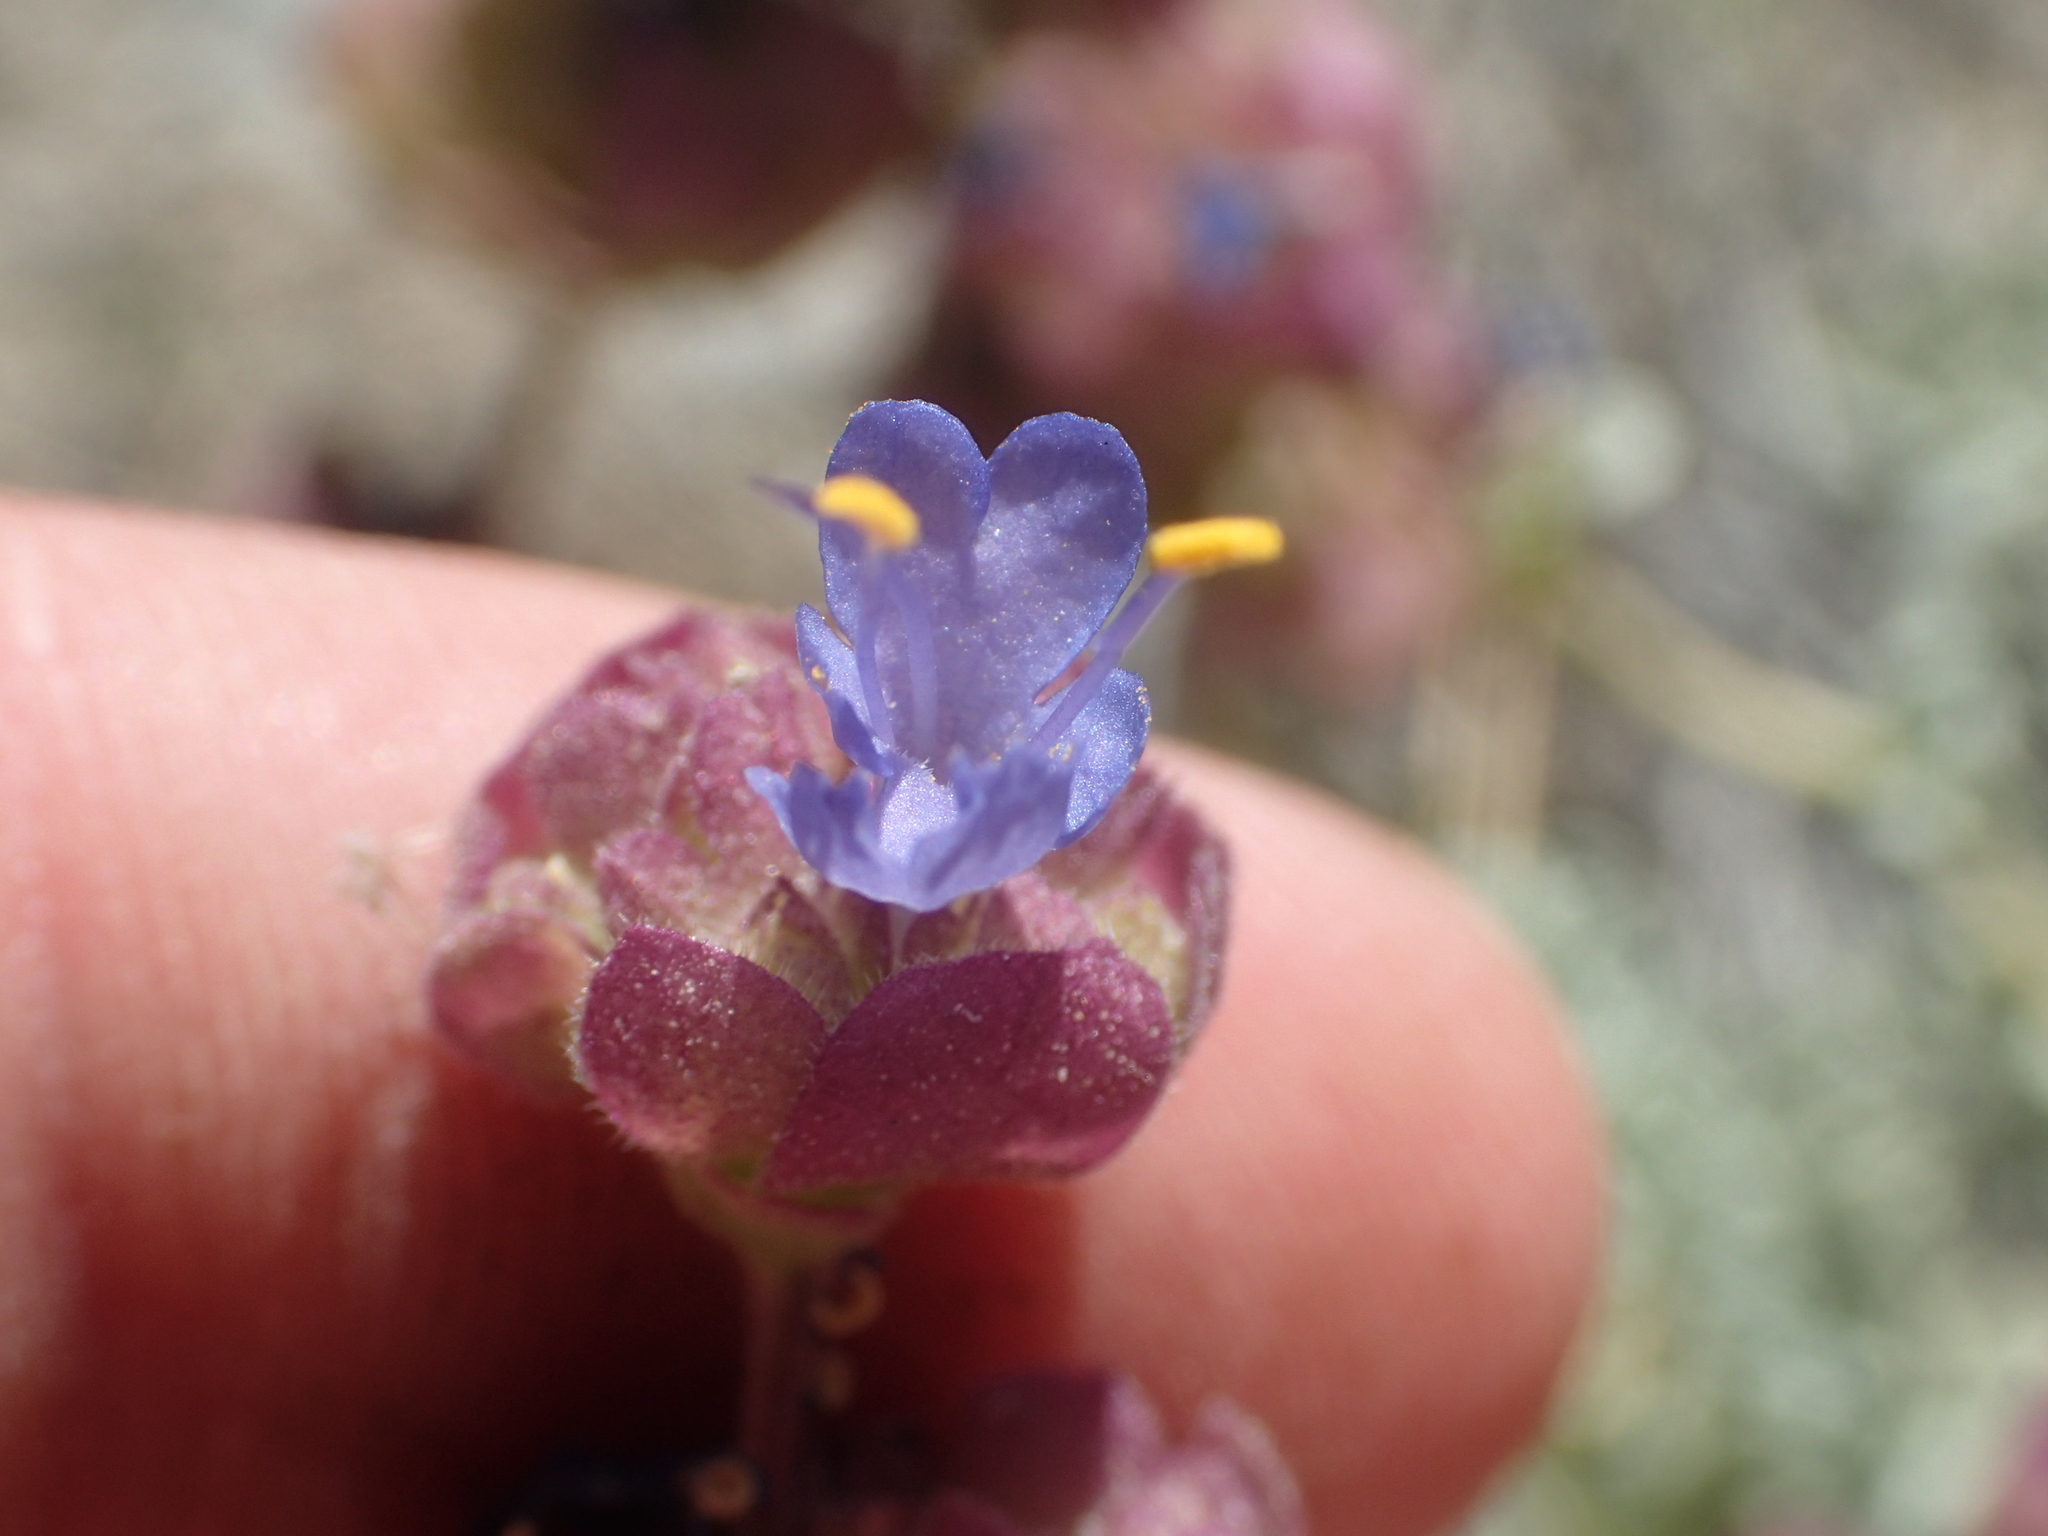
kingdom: Plantae
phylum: Tracheophyta
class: Magnoliopsida
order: Lamiales
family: Lamiaceae
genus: Salvia
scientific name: Salvia dorrii
